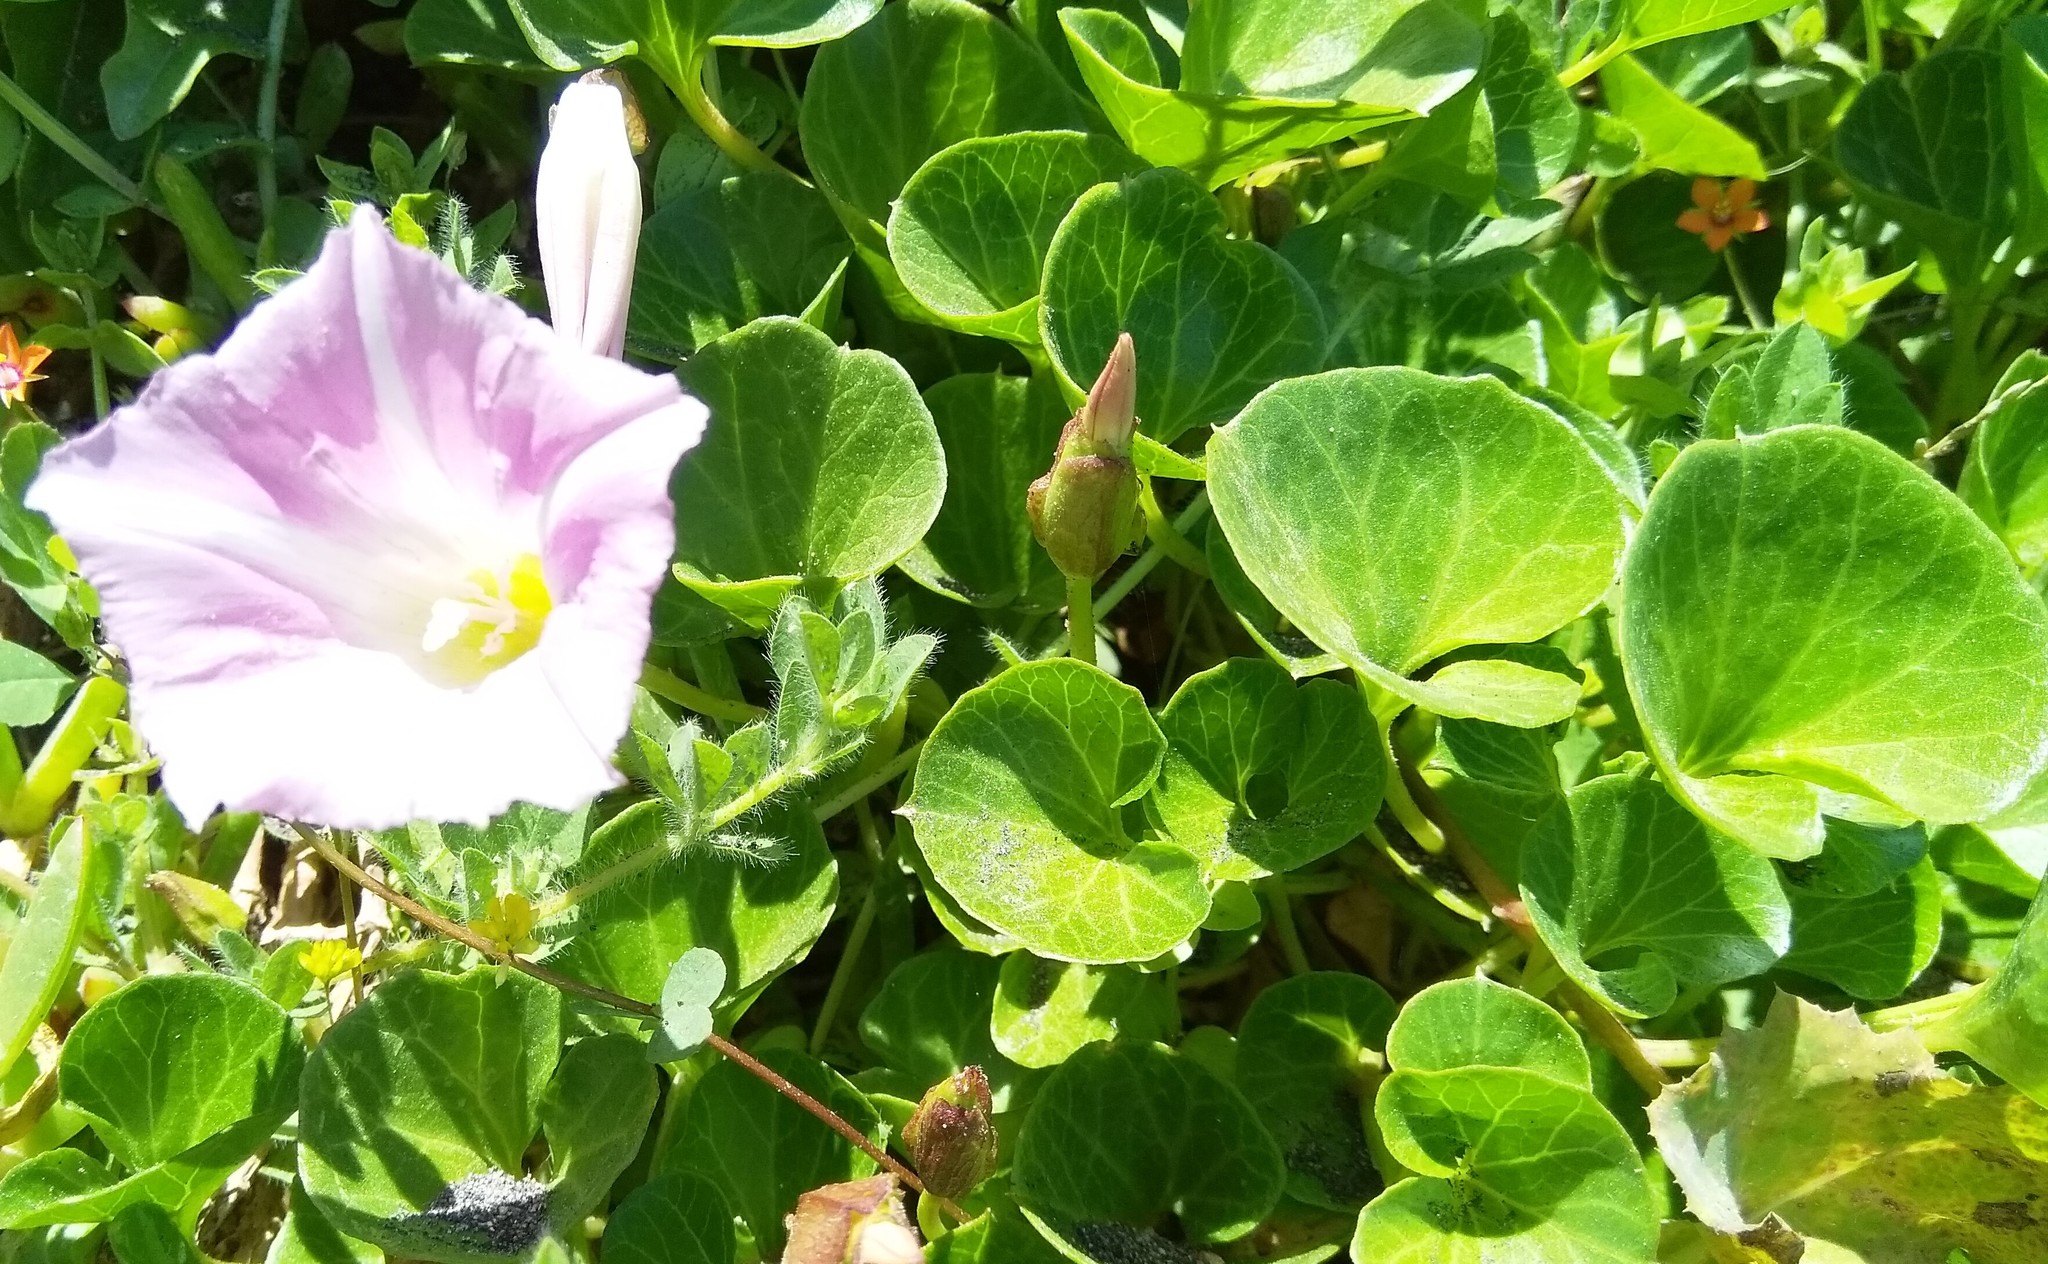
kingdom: Plantae
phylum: Tracheophyta
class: Magnoliopsida
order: Solanales
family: Convolvulaceae
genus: Calystegia
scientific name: Calystegia soldanella
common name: Sea bindweed
